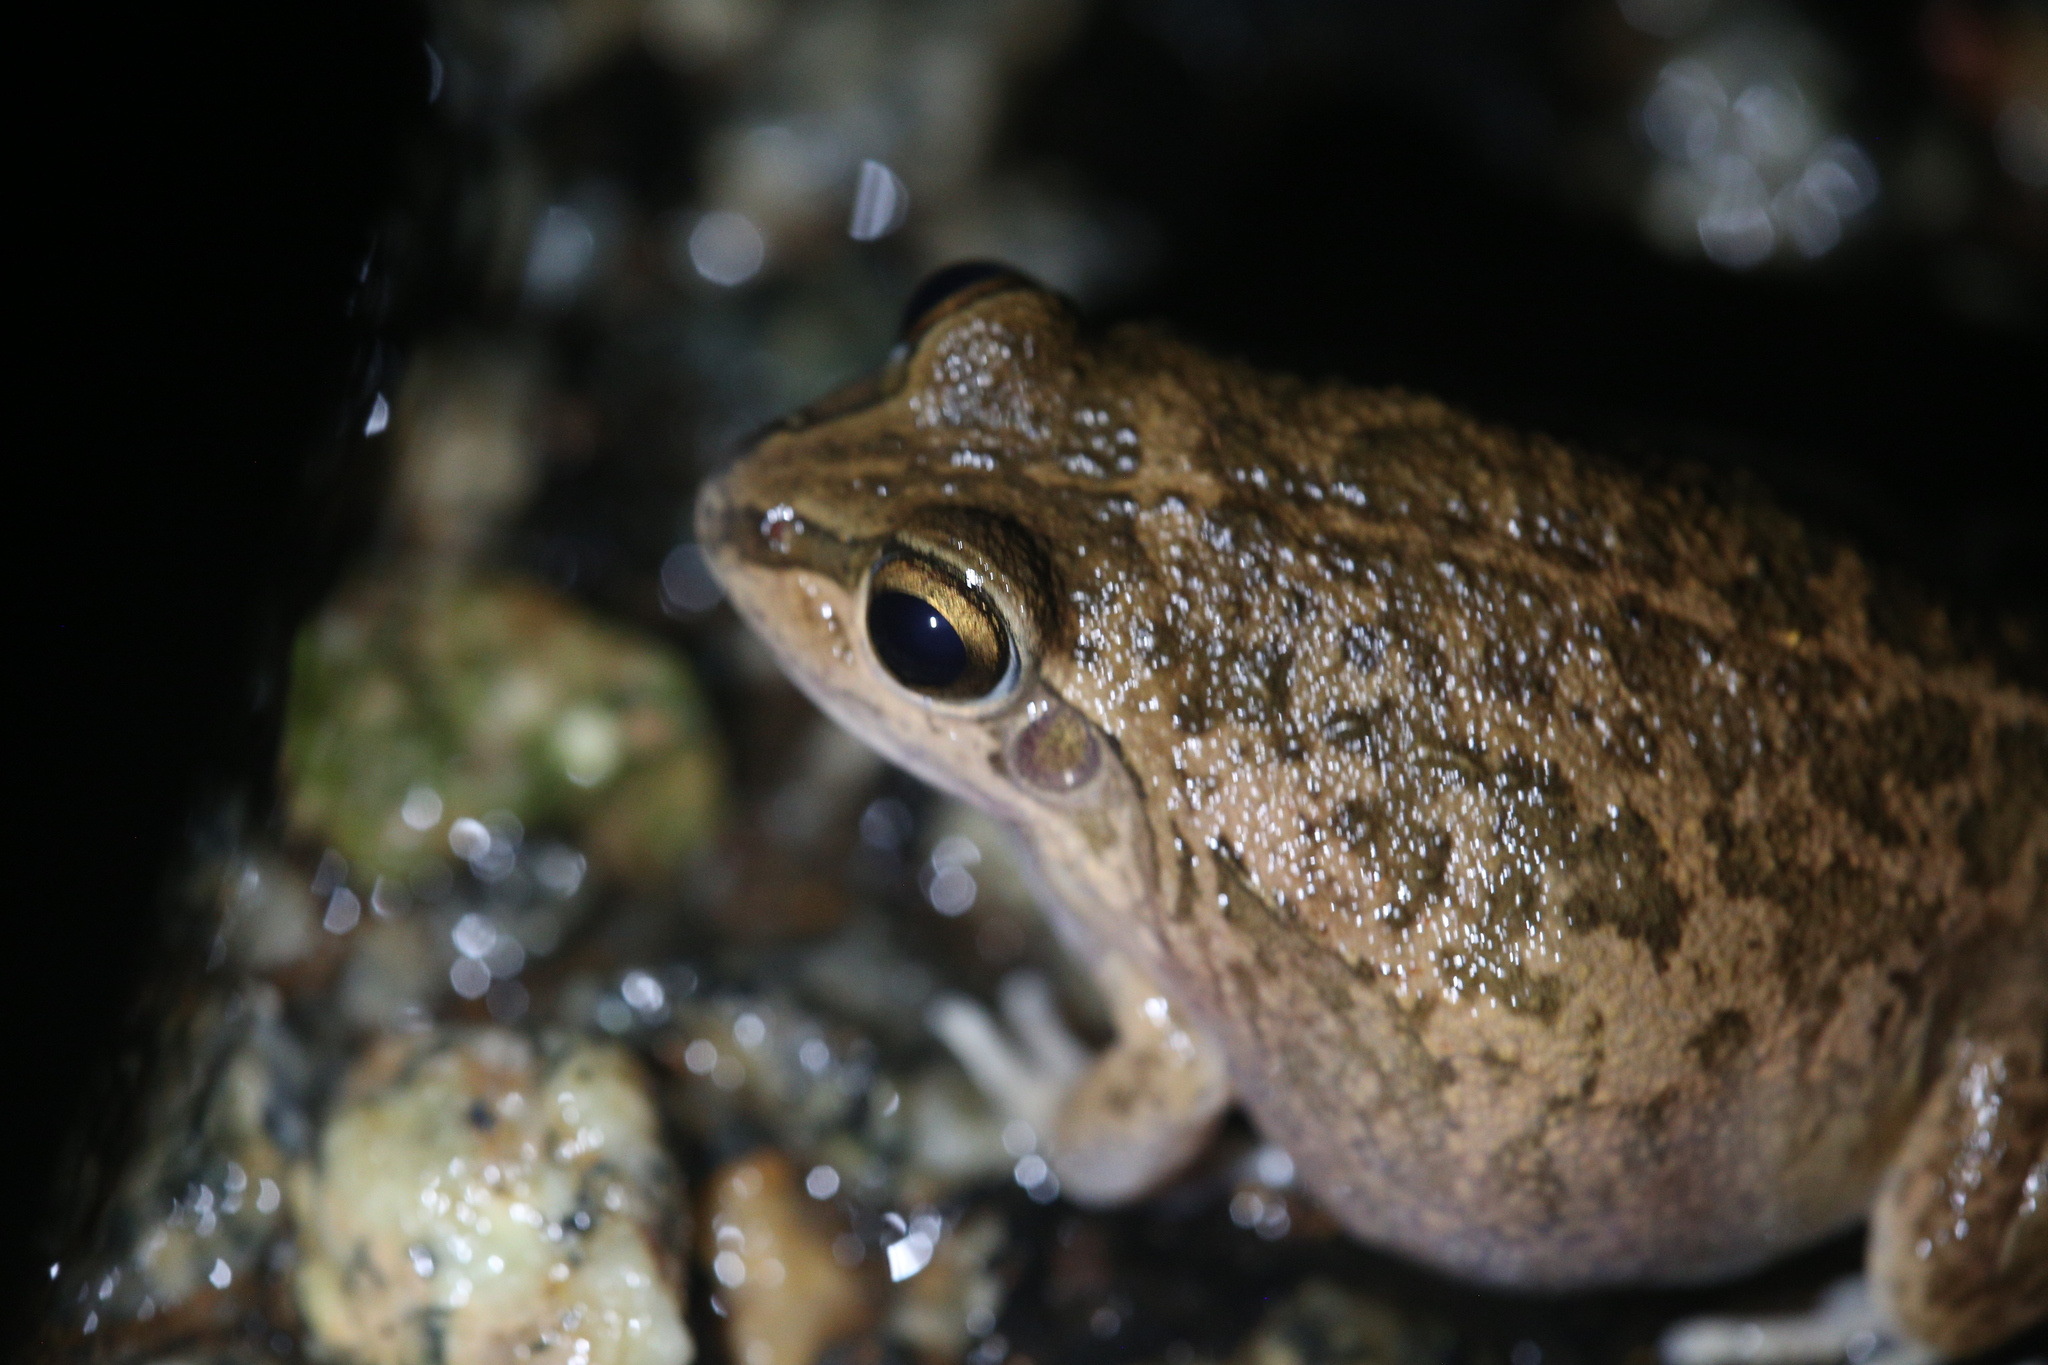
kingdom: Animalia
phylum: Chordata
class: Amphibia
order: Anura
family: Pelodryadidae
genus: Ranoidea
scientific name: Ranoidea maini
